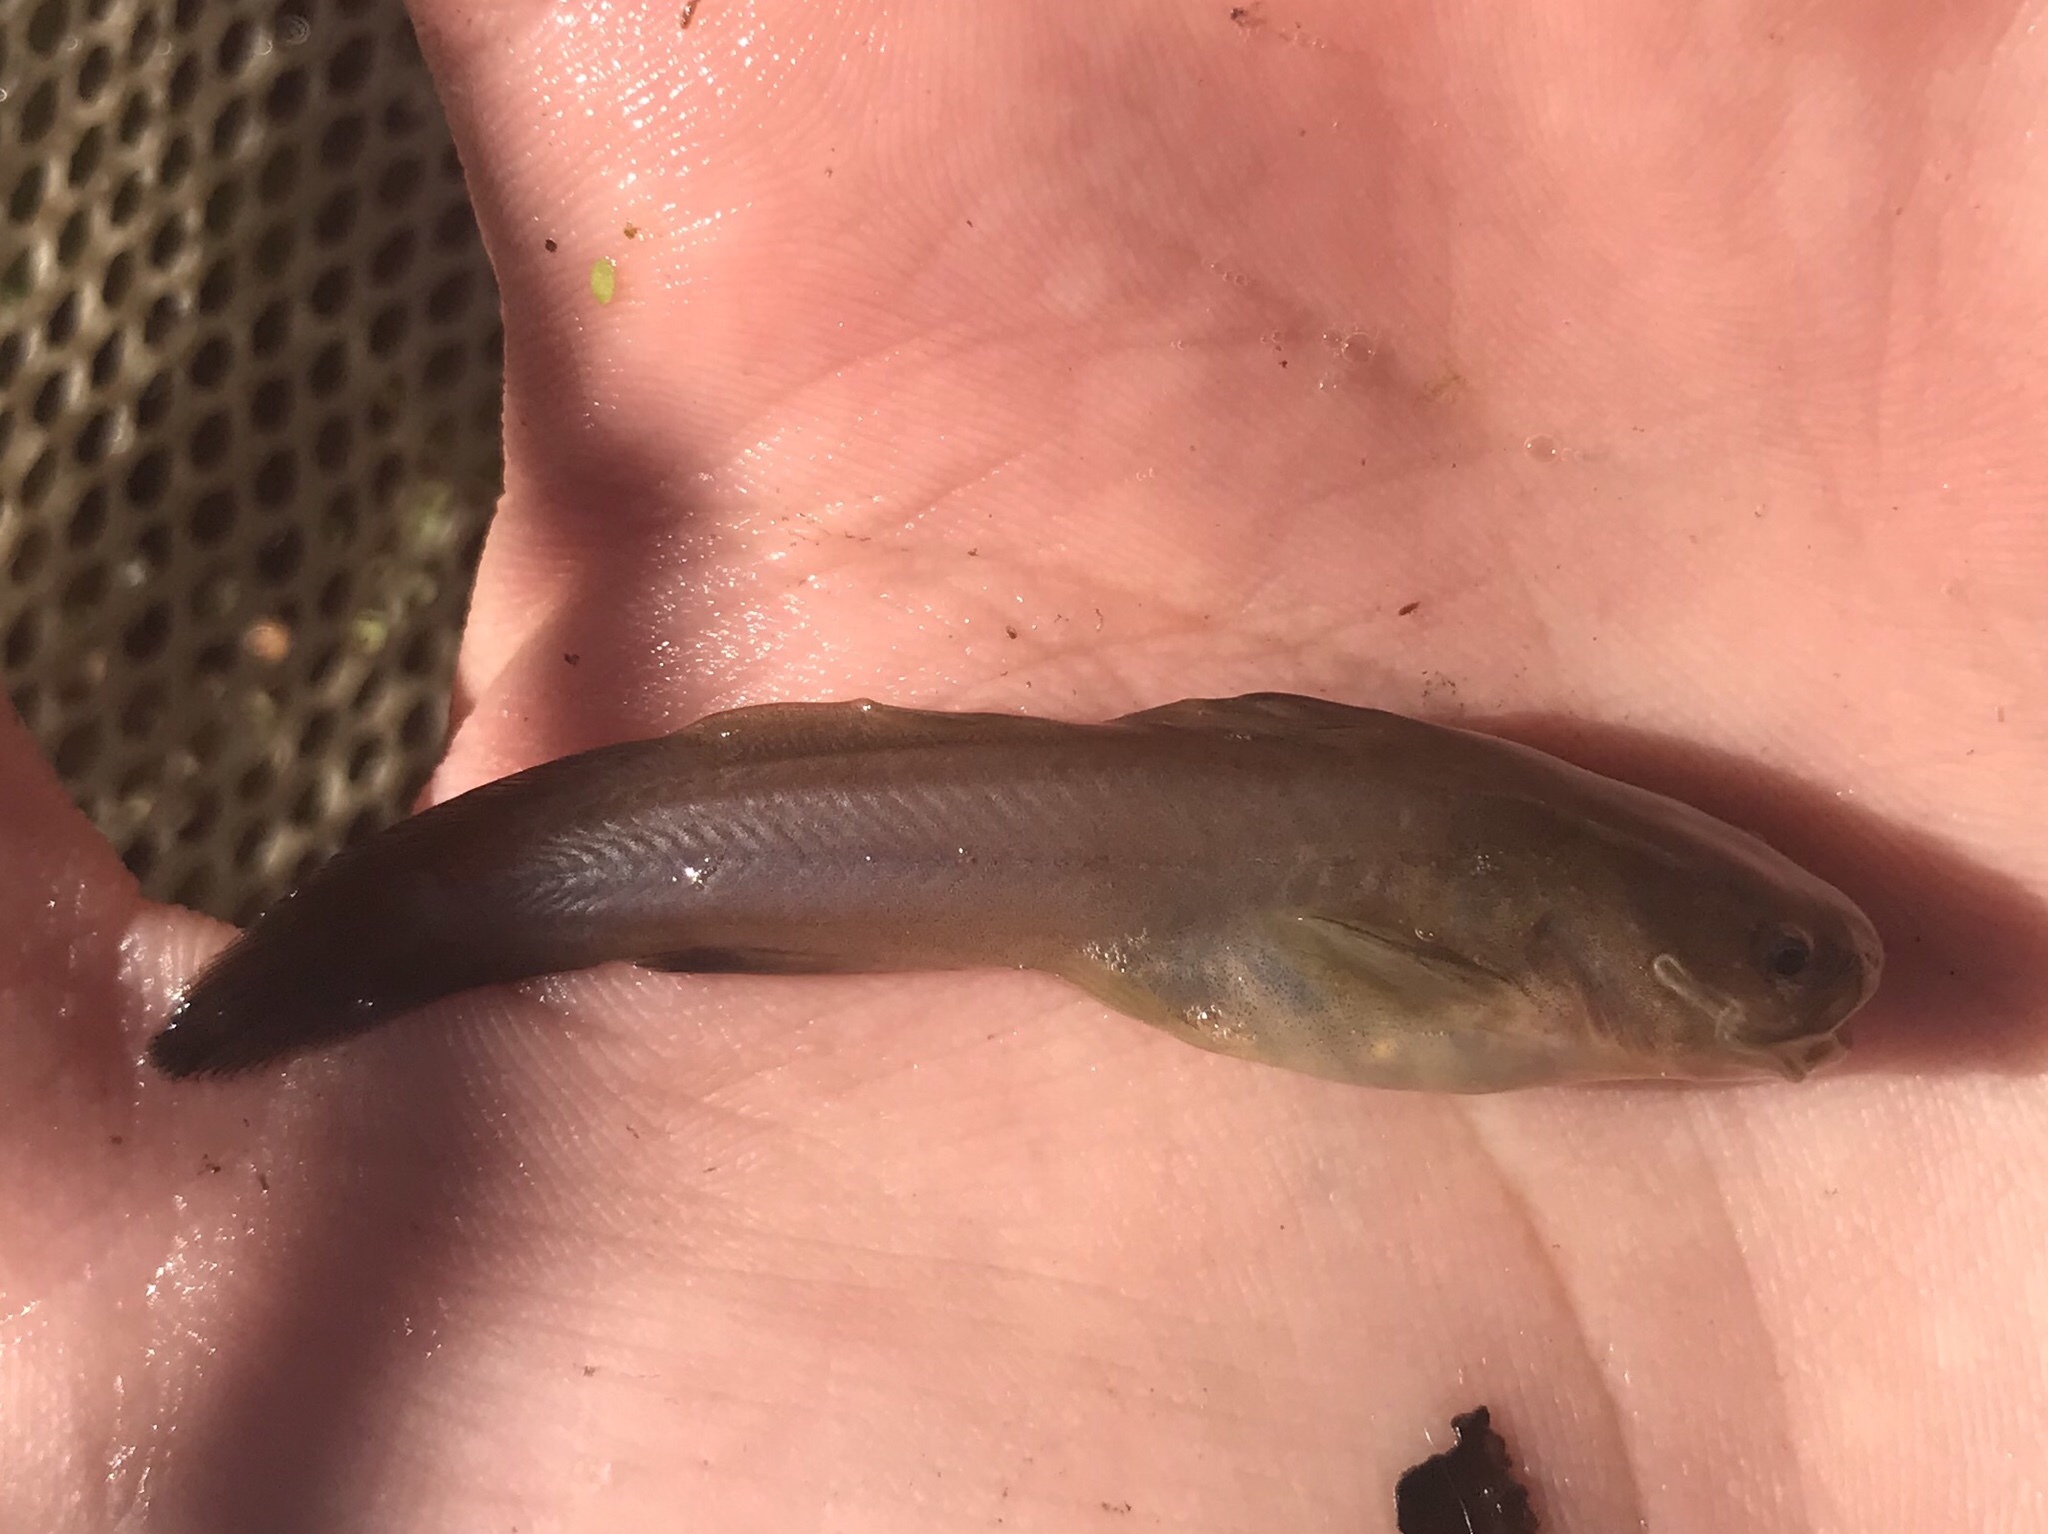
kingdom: Animalia
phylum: Chordata
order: Siluriformes
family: Ictaluridae
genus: Noturus
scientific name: Noturus gyrinus
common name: Tadpole madtom
